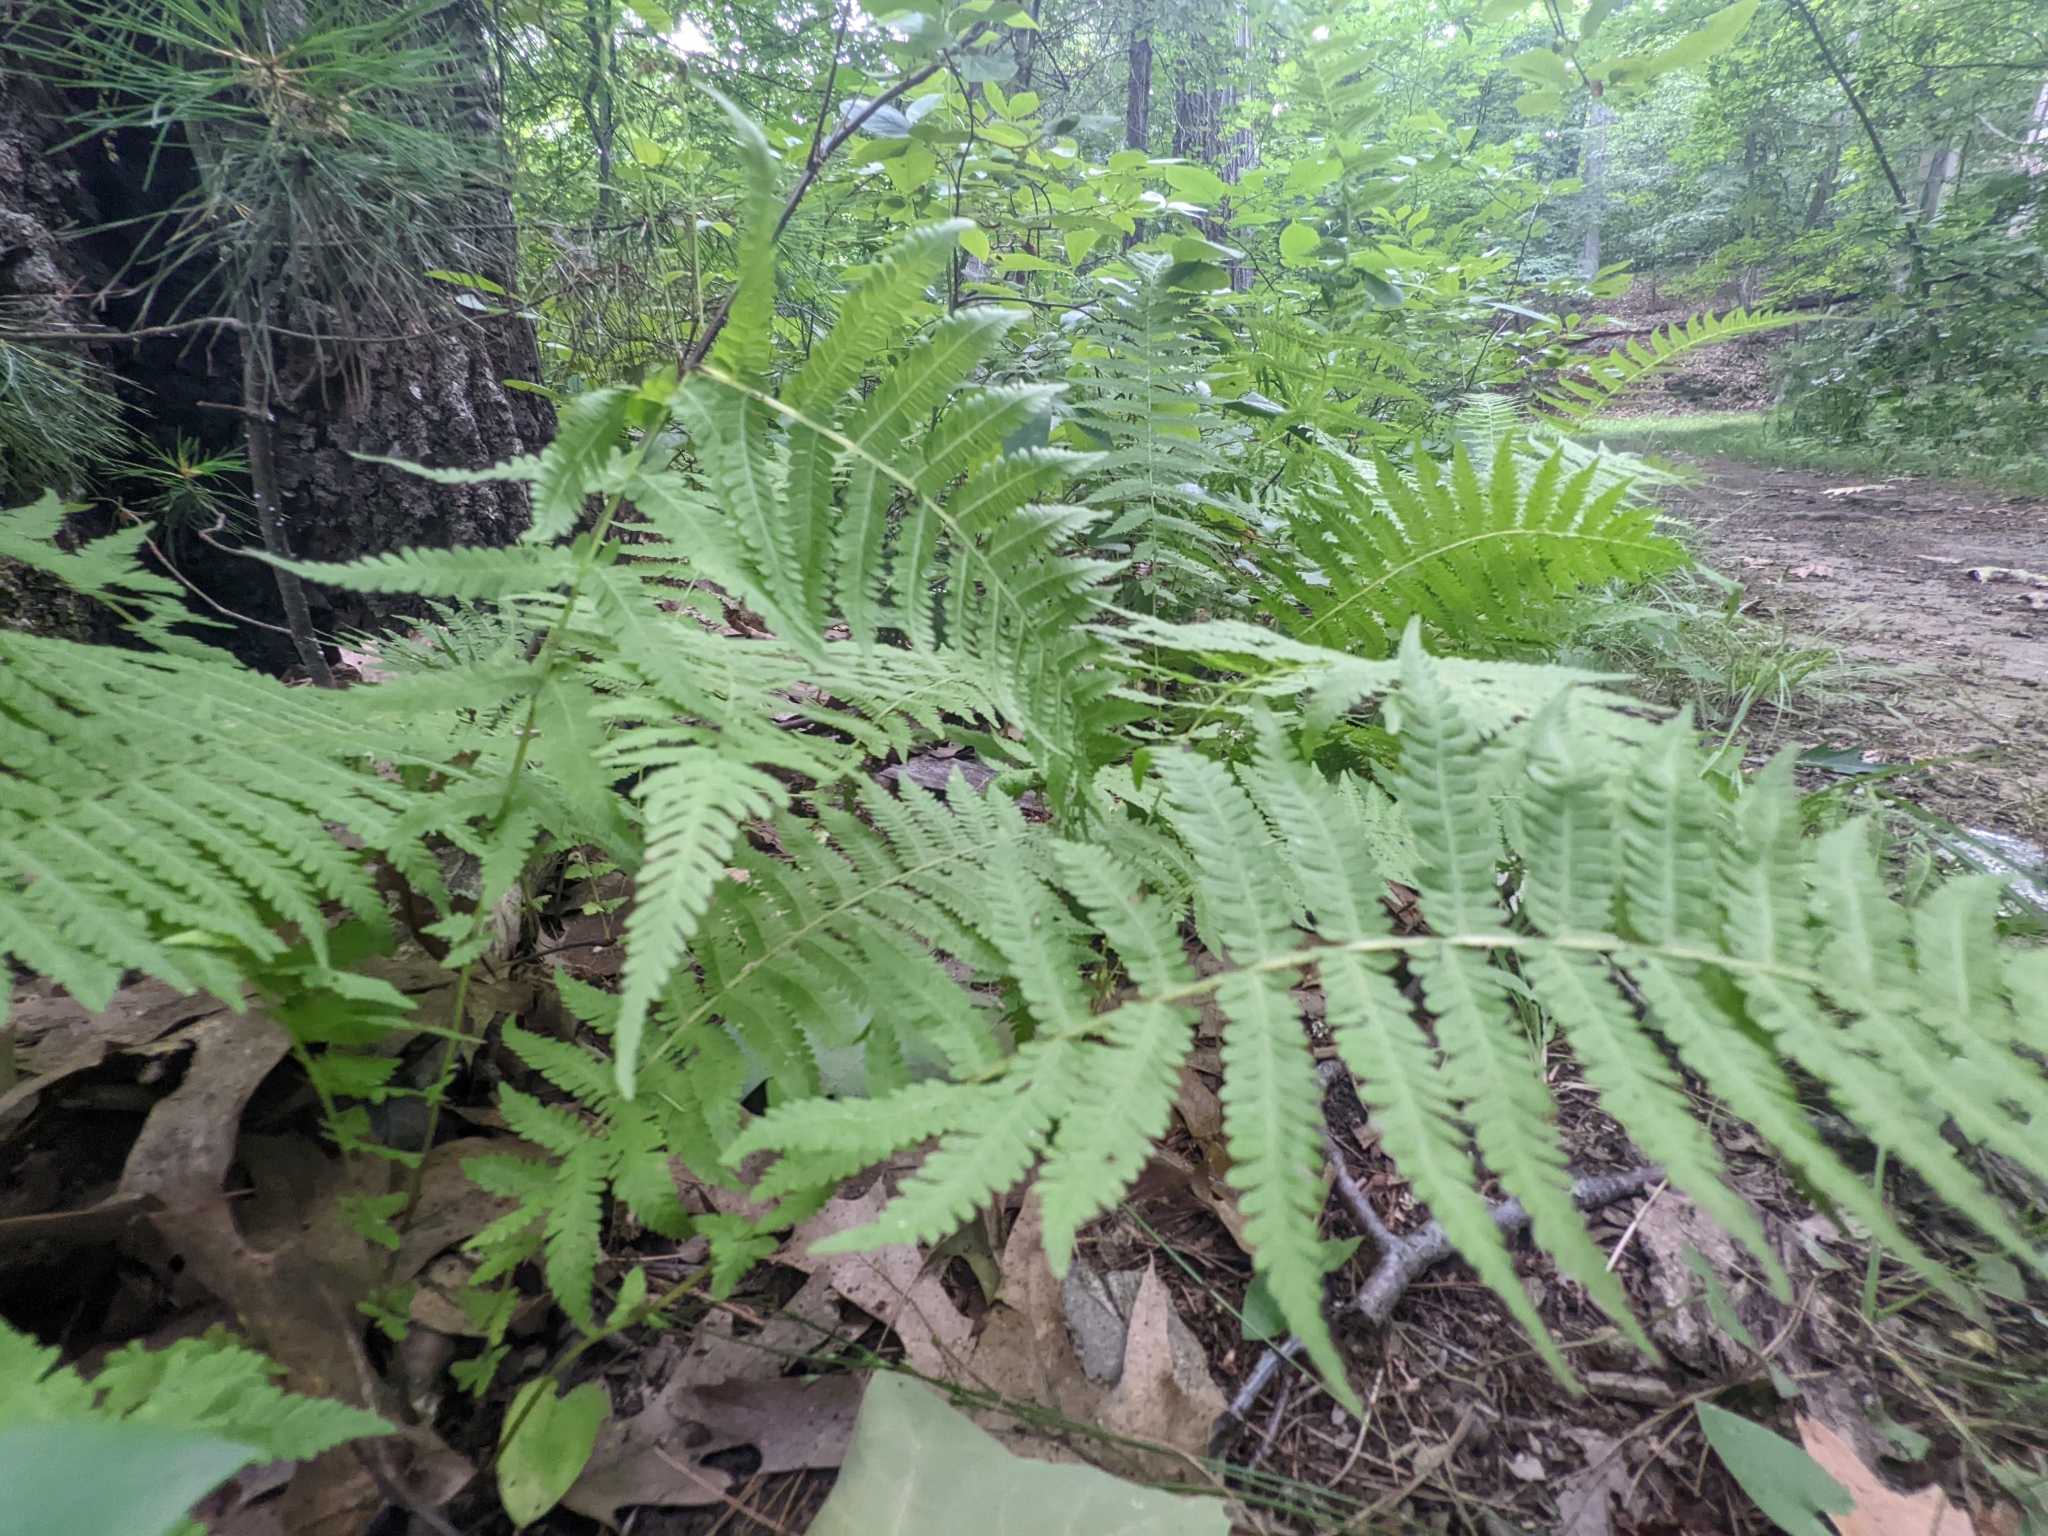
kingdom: Plantae
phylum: Tracheophyta
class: Polypodiopsida
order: Polypodiales
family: Thelypteridaceae
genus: Amauropelta
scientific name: Amauropelta noveboracensis
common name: New york fern
